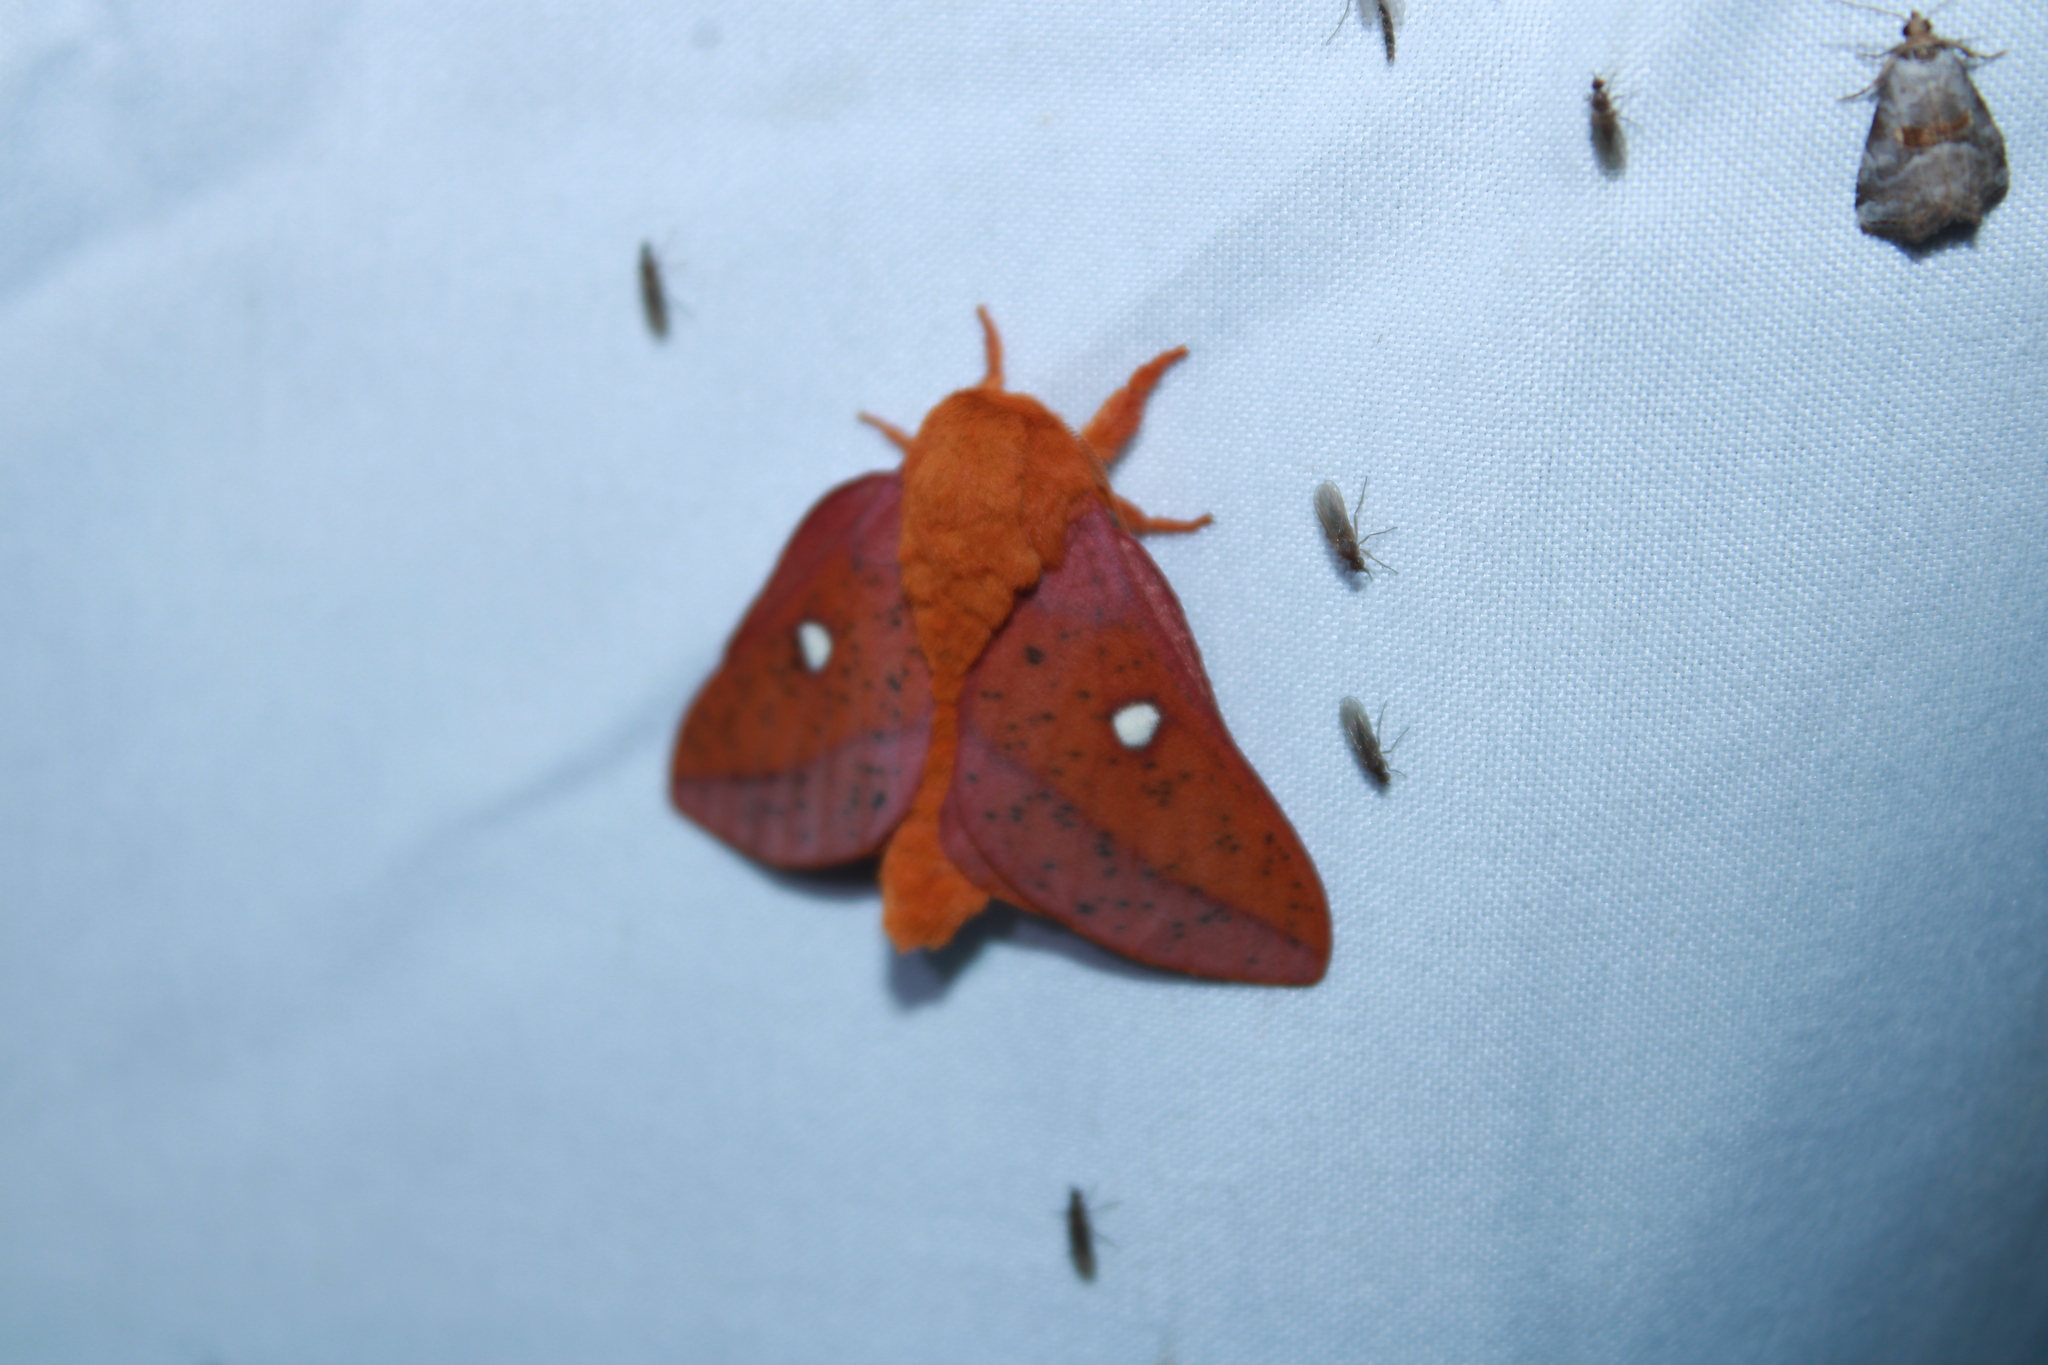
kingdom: Animalia
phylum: Arthropoda
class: Insecta
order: Lepidoptera
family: Saturniidae
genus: Anisota
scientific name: Anisota stigma
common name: Spiny oakworm moth
